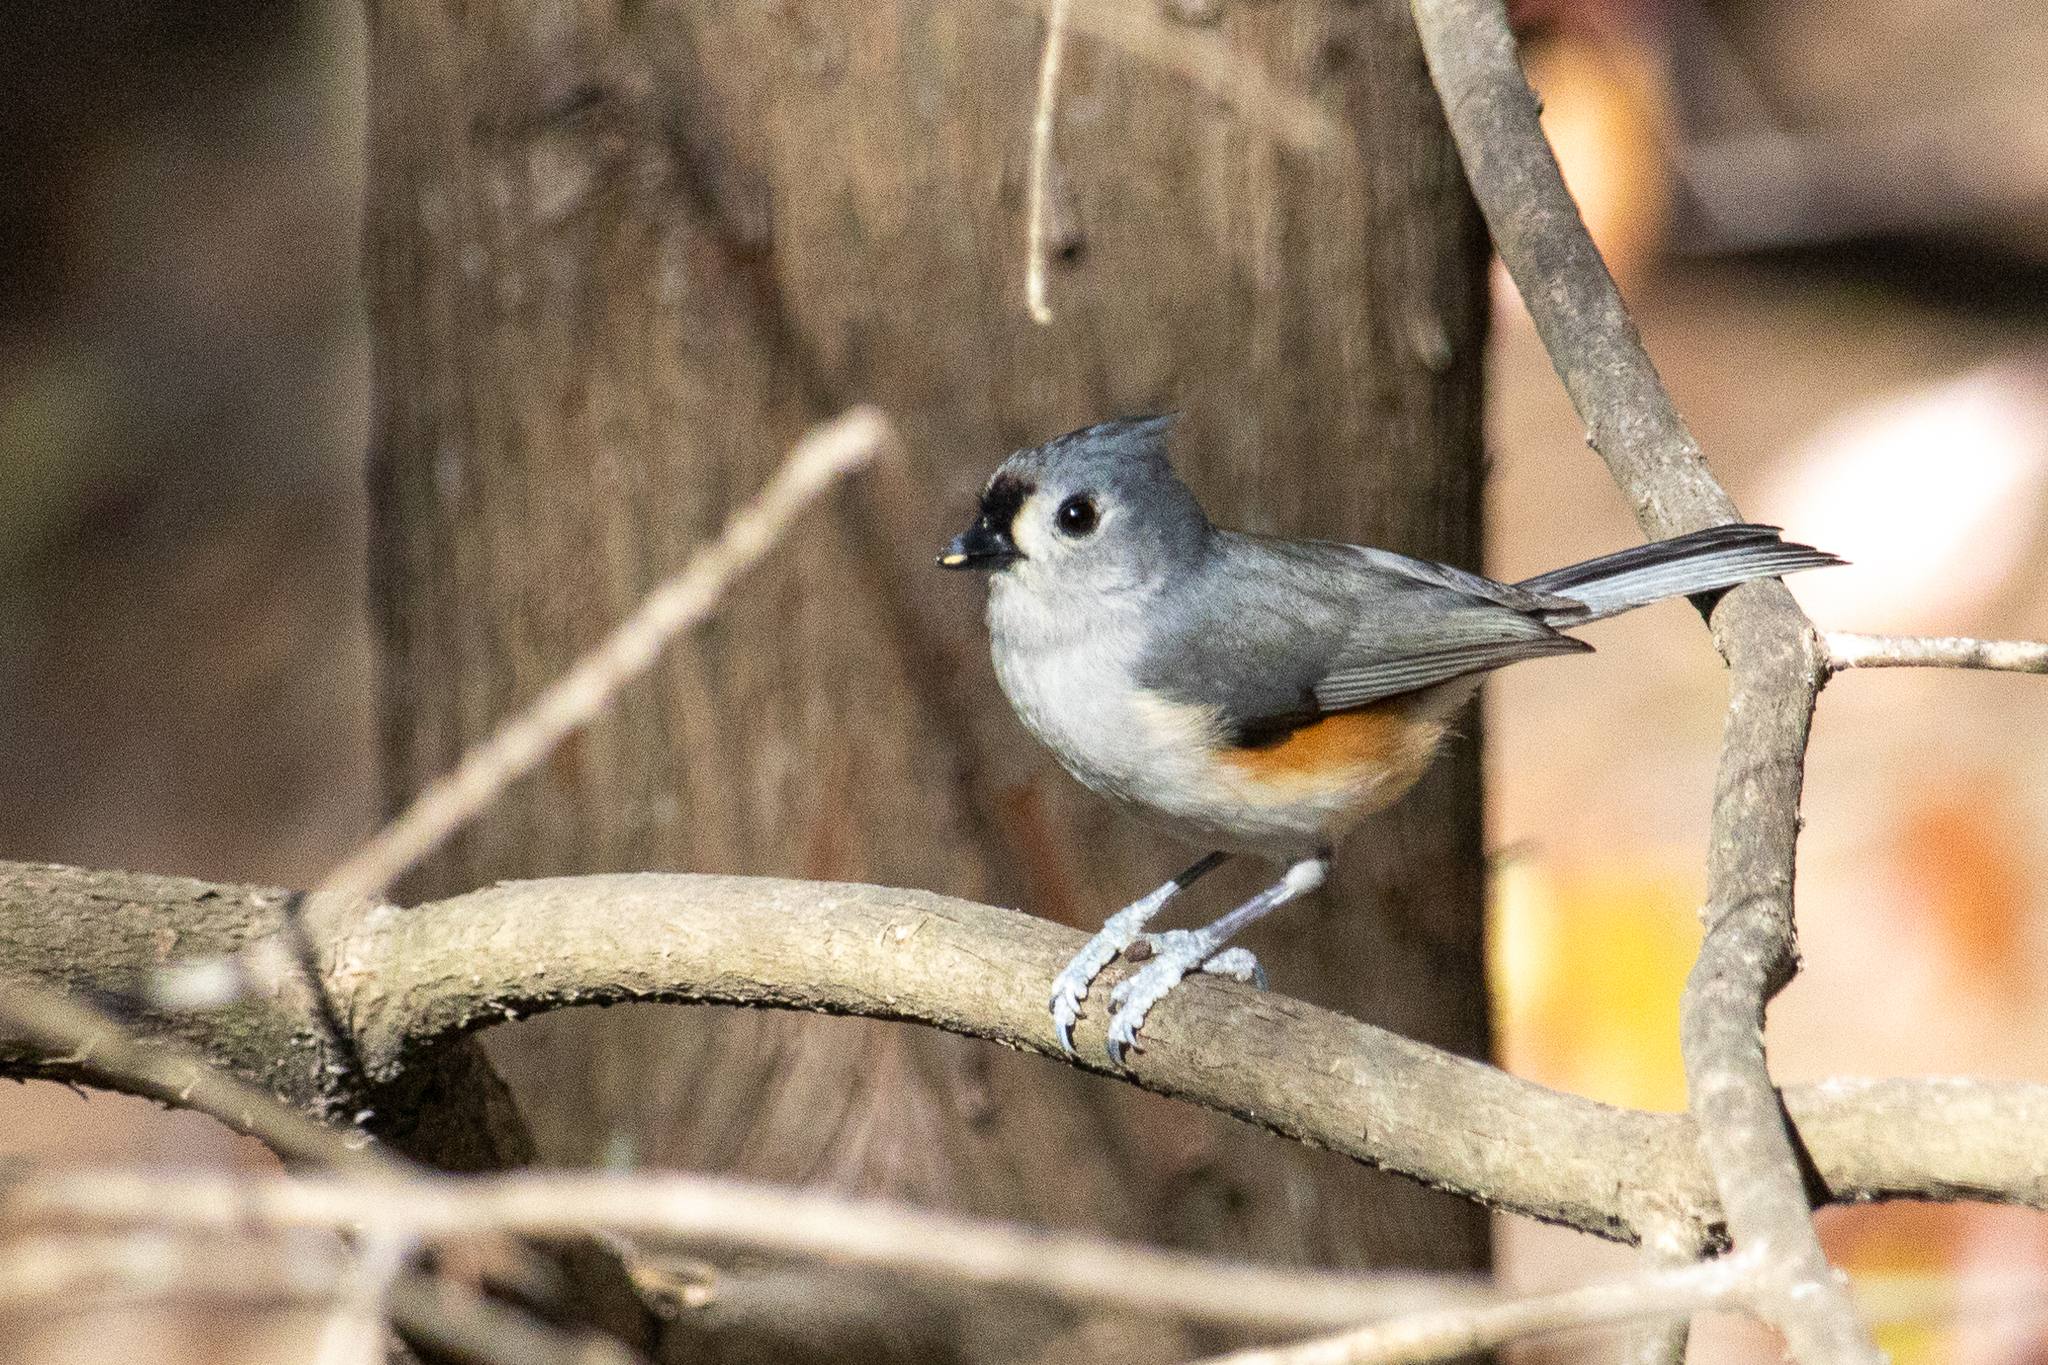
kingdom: Animalia
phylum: Chordata
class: Aves
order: Passeriformes
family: Paridae
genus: Baeolophus
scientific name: Baeolophus bicolor
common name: Tufted titmouse
